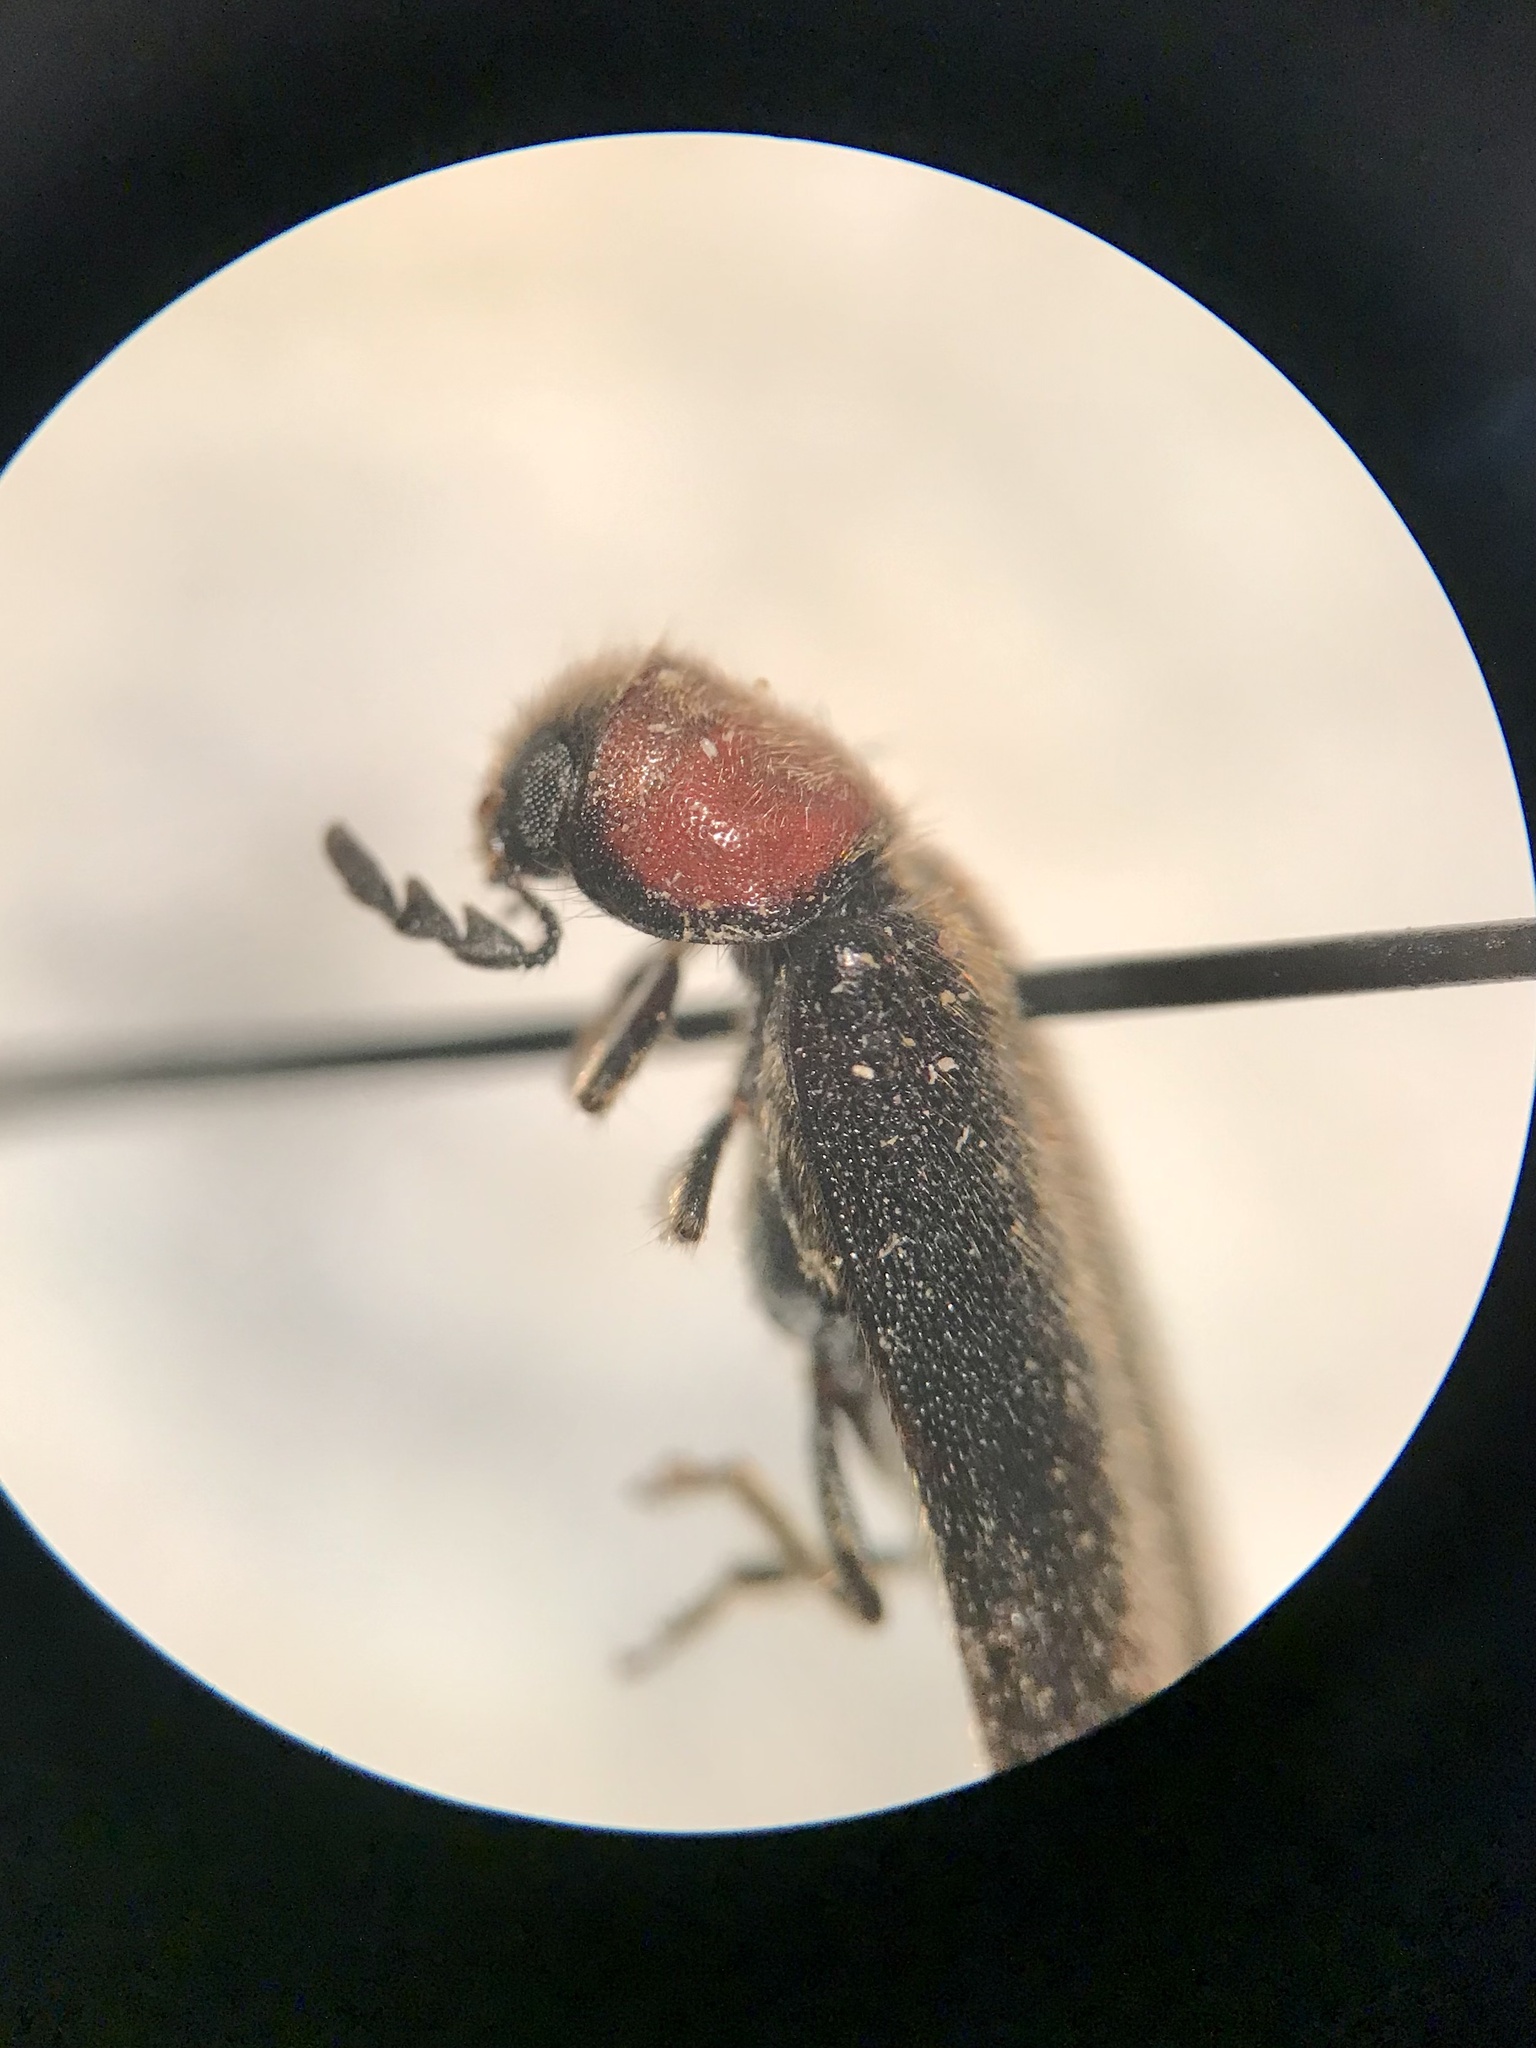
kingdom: Animalia
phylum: Arthropoda
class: Insecta
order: Coleoptera
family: Cleridae
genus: Neorthopleura
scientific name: Neorthopleura thoracica
